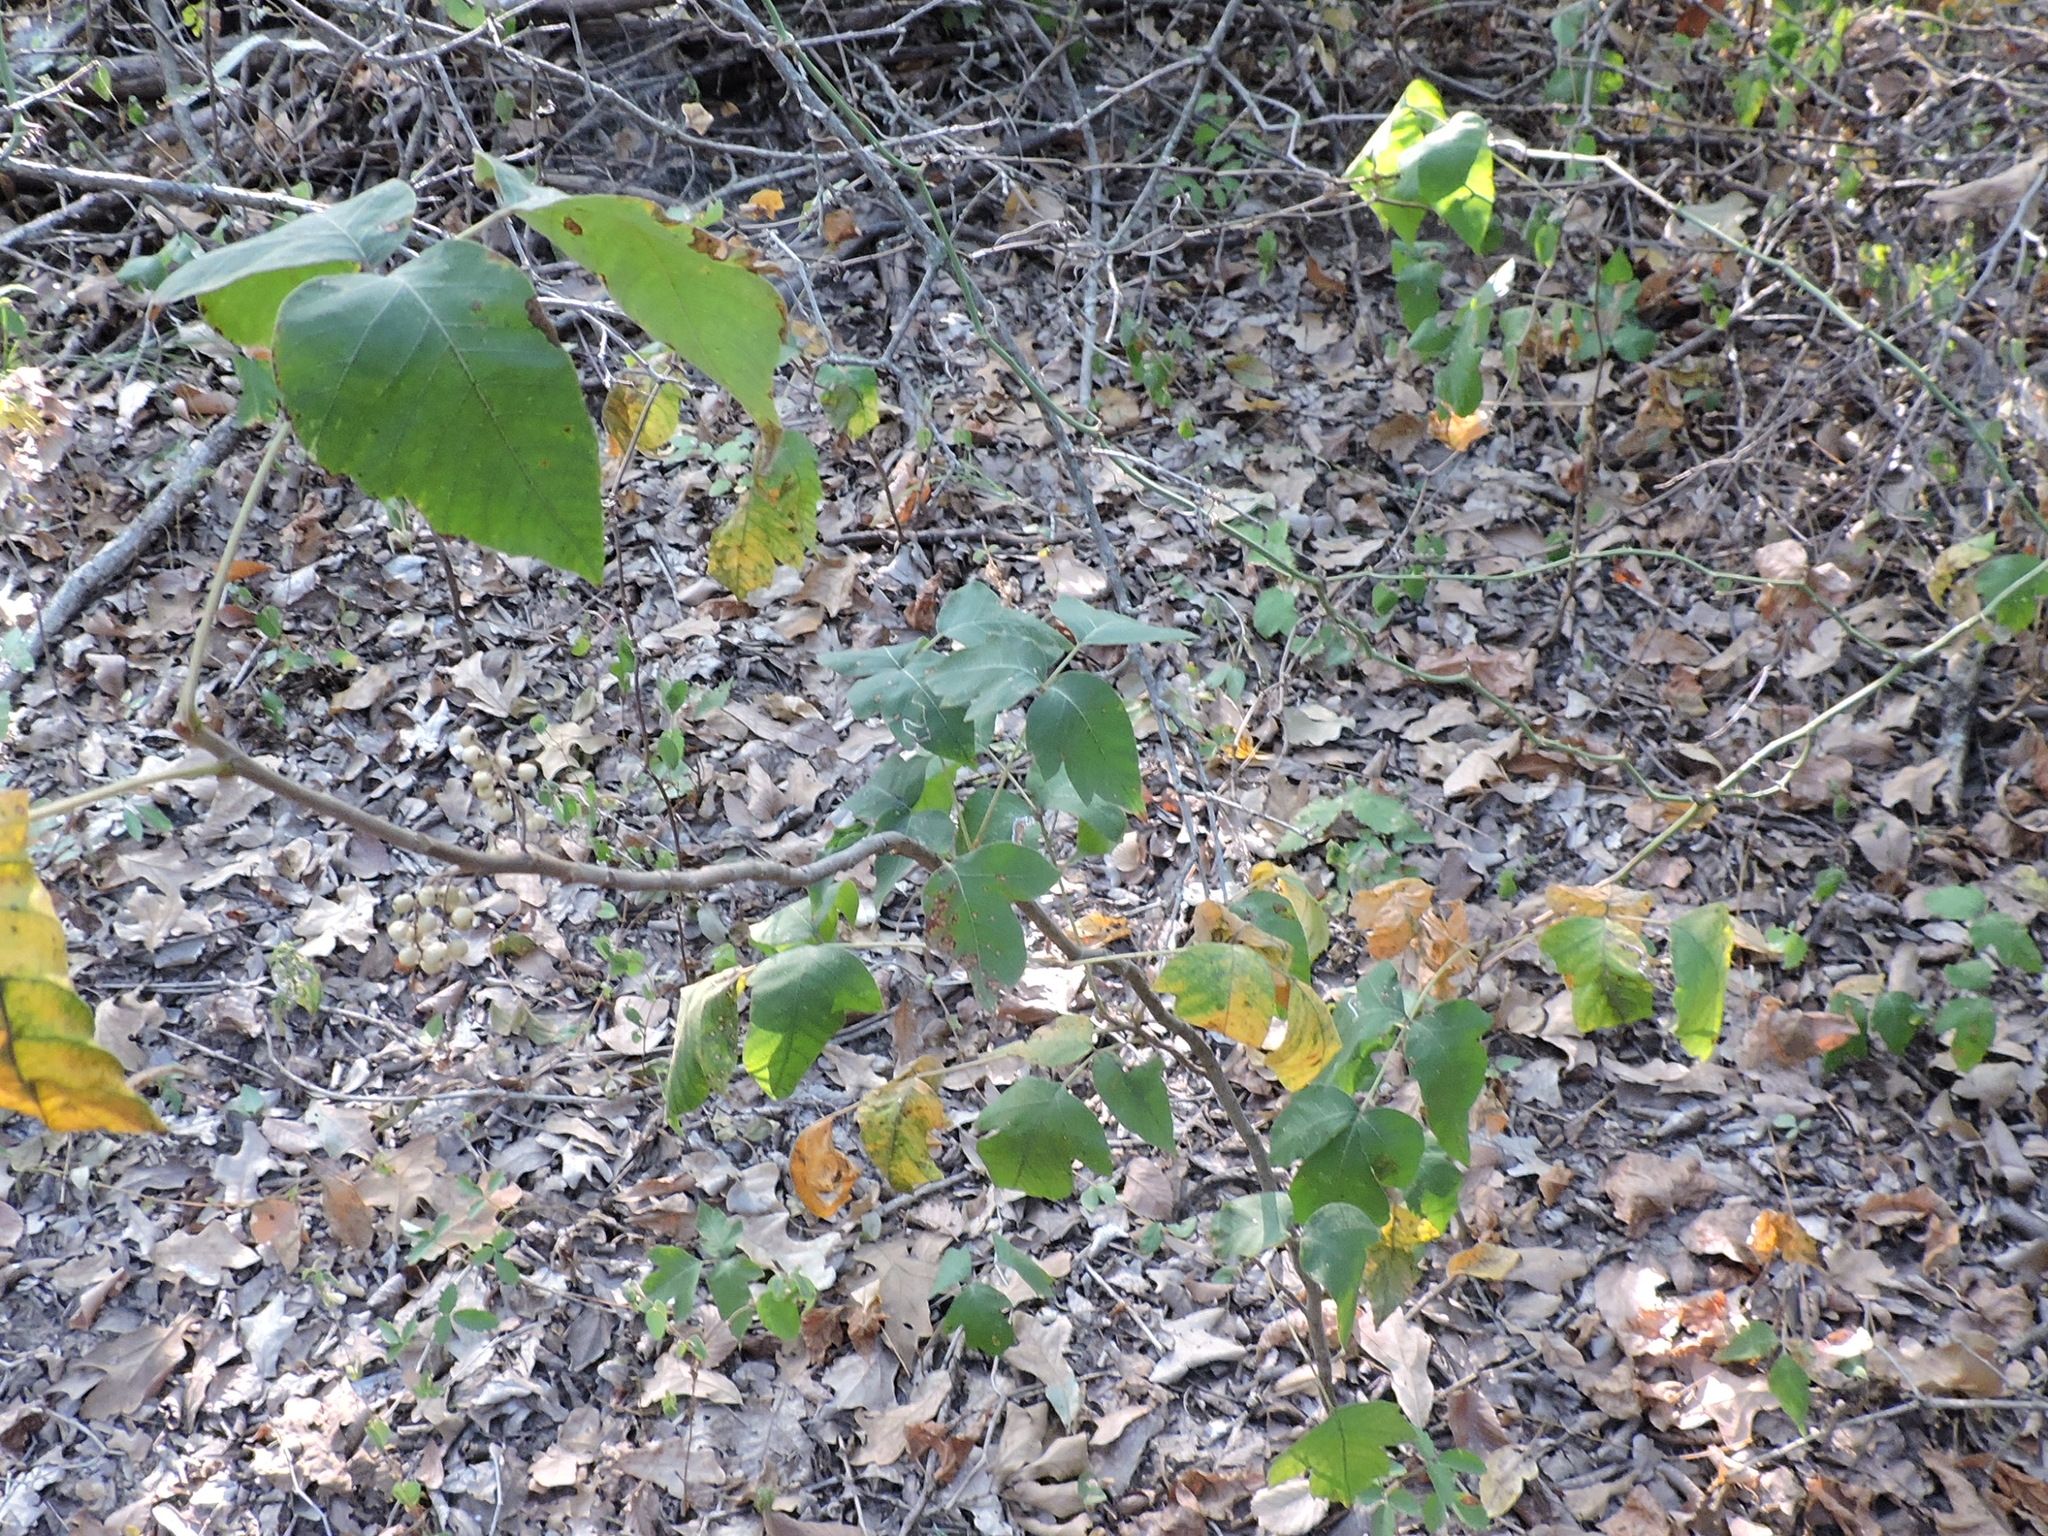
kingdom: Plantae
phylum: Tracheophyta
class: Magnoliopsida
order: Sapindales
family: Anacardiaceae
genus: Toxicodendron
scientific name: Toxicodendron radicans
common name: Poison ivy
